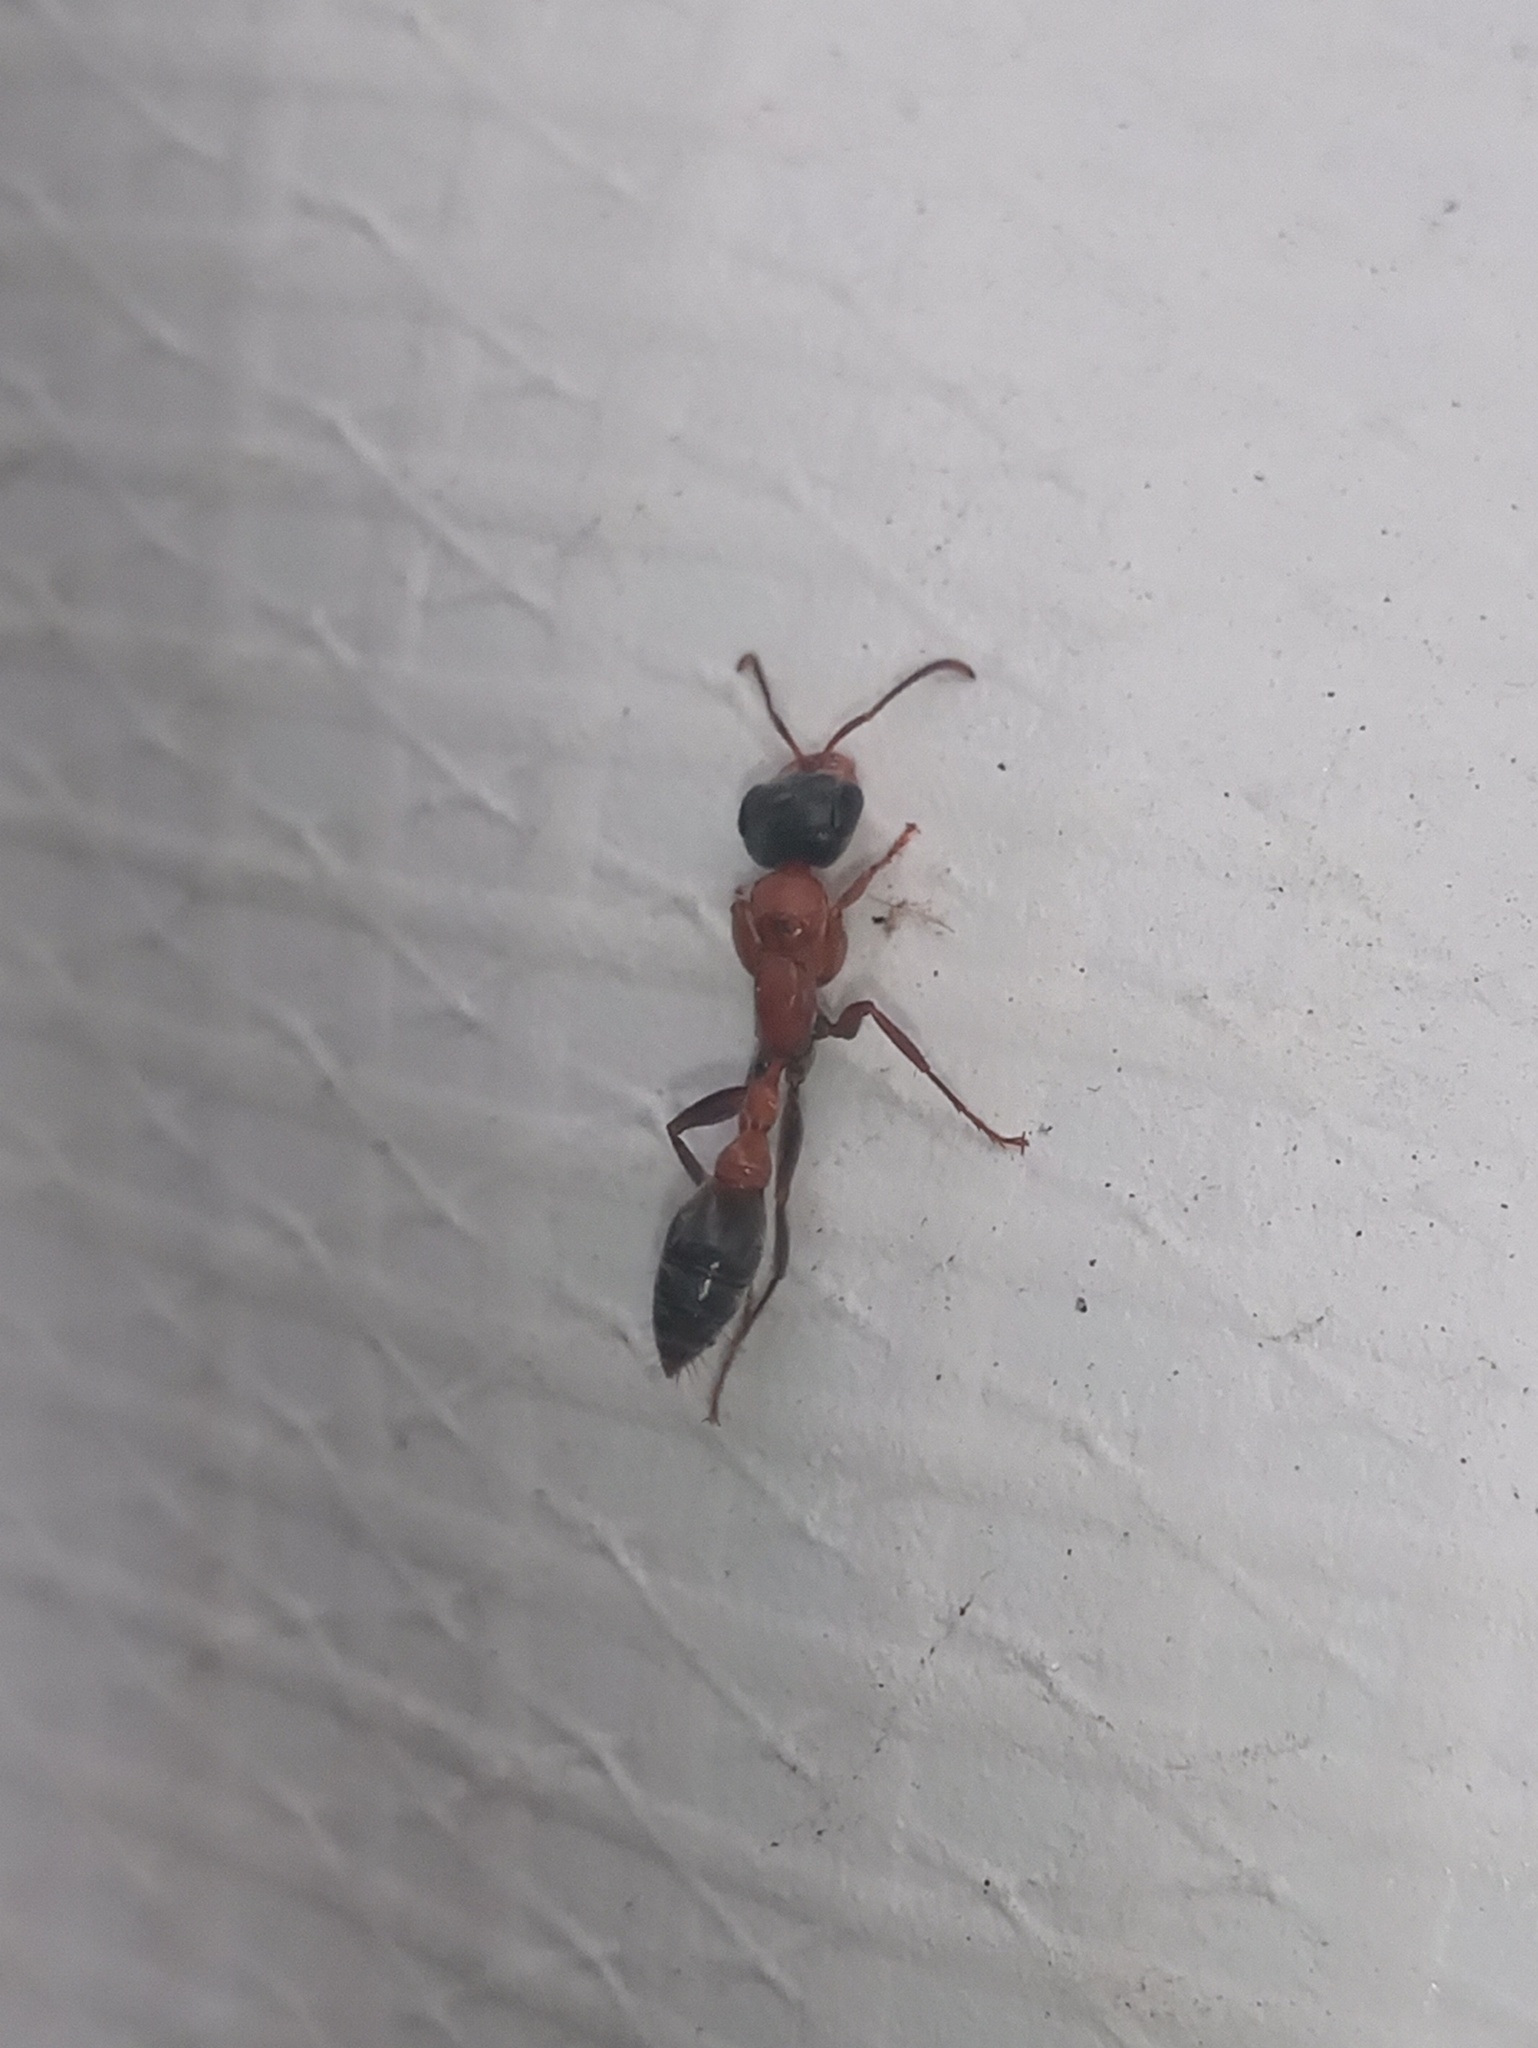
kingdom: Animalia
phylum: Arthropoda
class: Insecta
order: Hymenoptera
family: Formicidae
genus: Pseudomyrmex
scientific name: Pseudomyrmex gracilis
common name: Graceful twig ant
